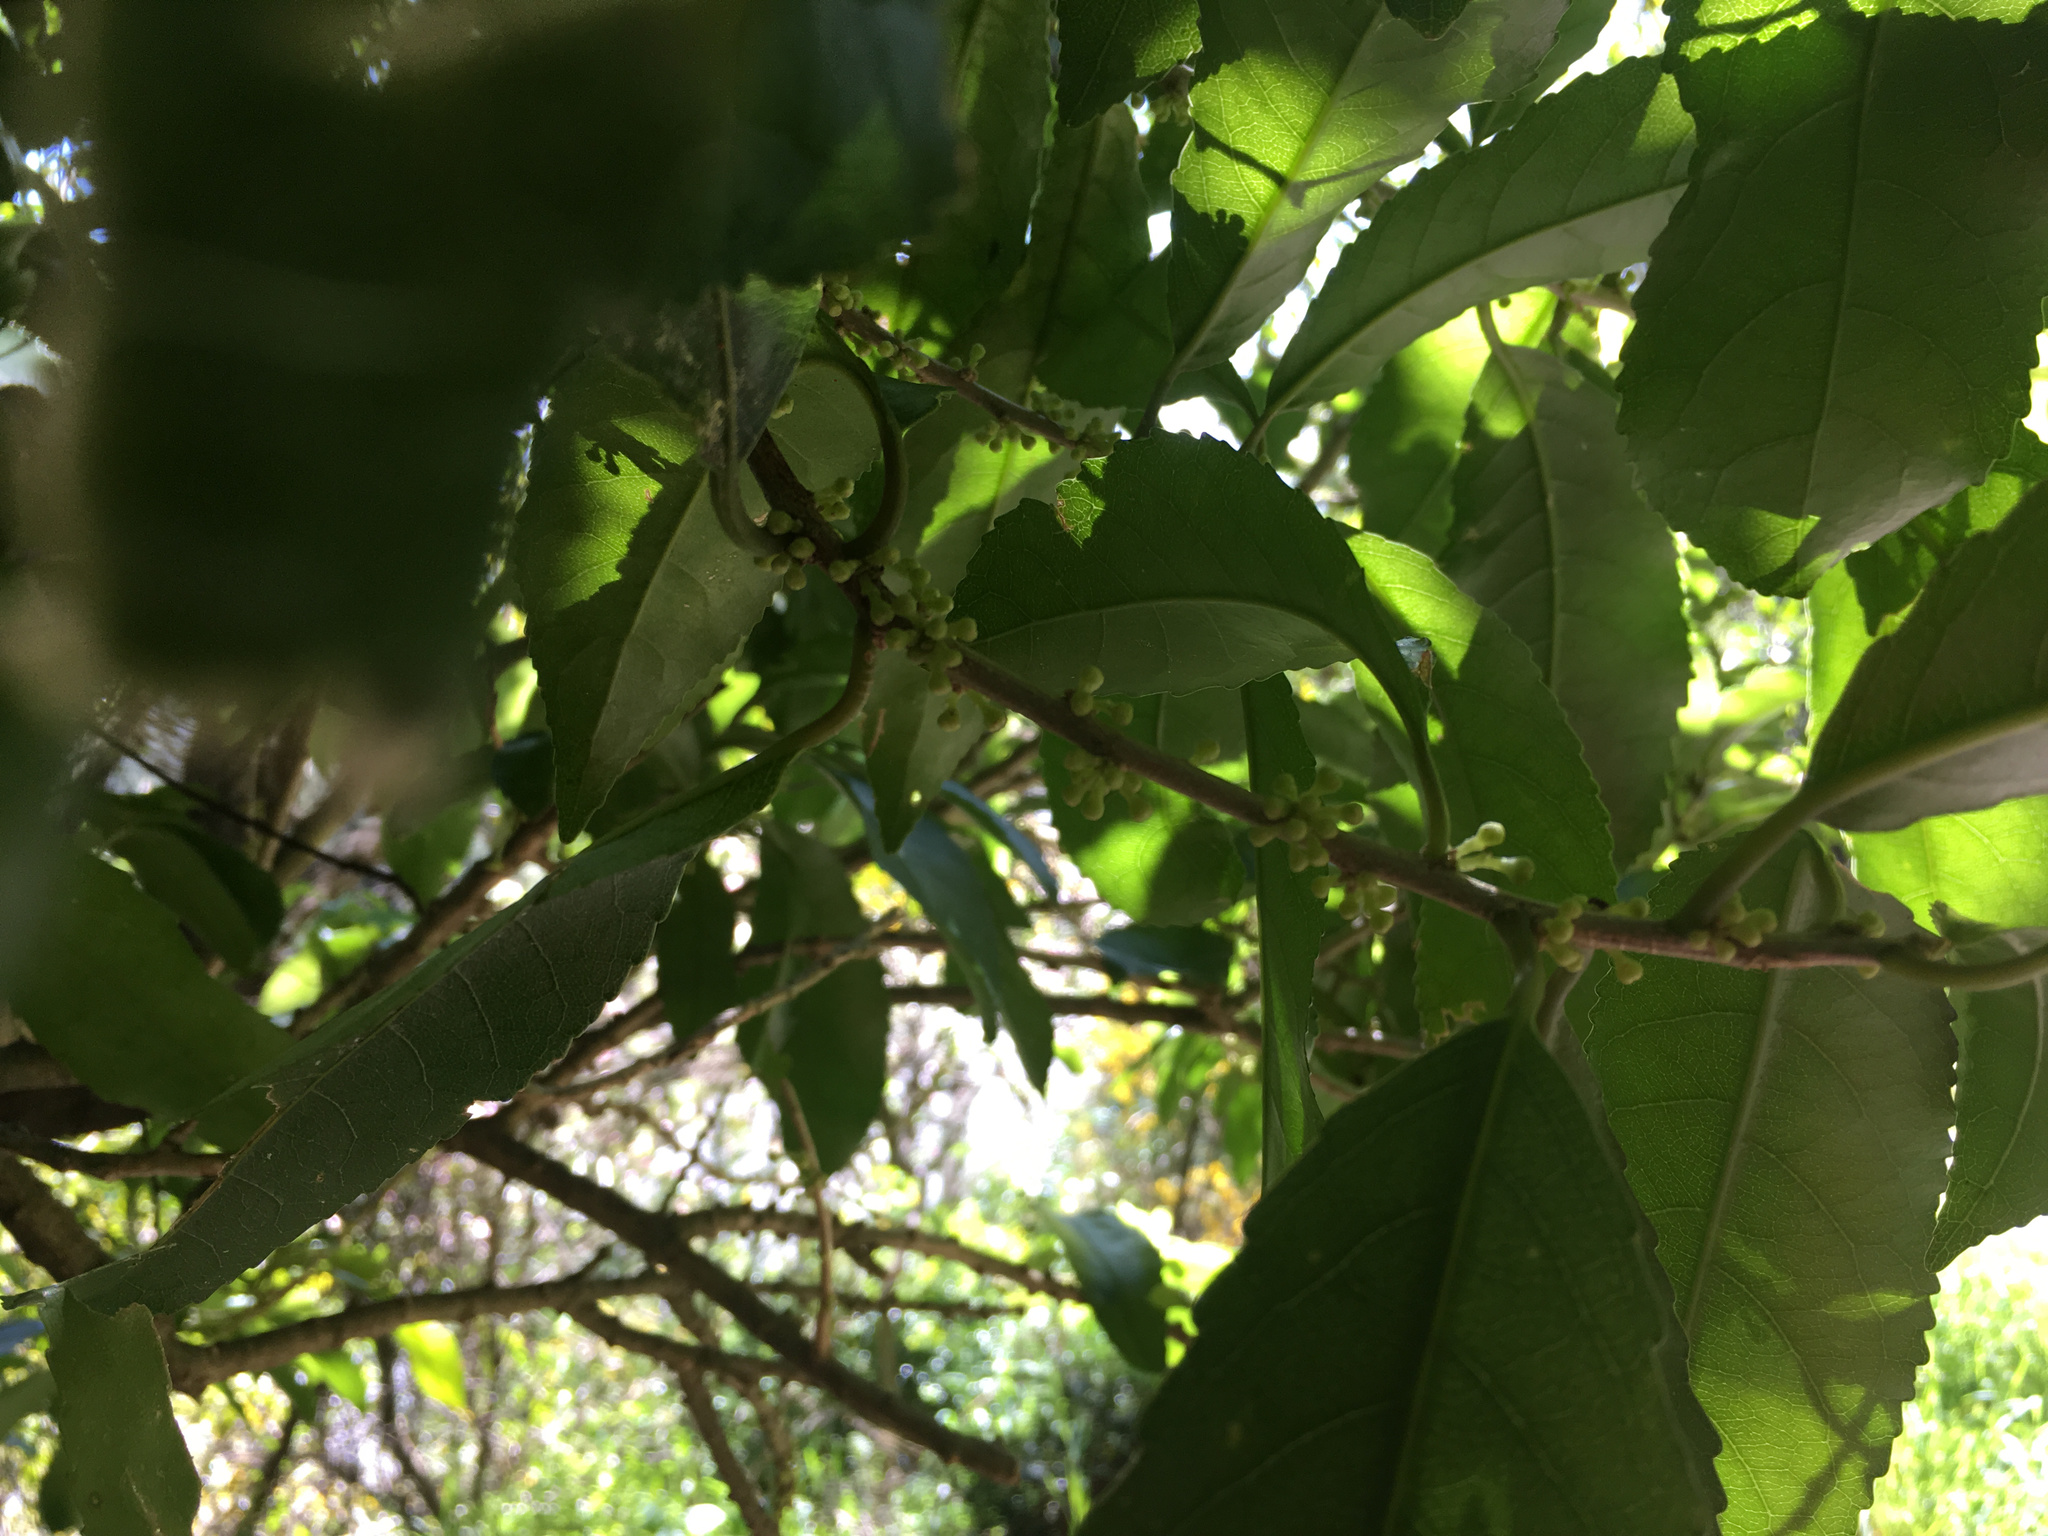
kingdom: Plantae
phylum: Tracheophyta
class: Magnoliopsida
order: Malpighiales
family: Violaceae
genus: Melicytus
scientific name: Melicytus ramiflorus
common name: Mahoe
